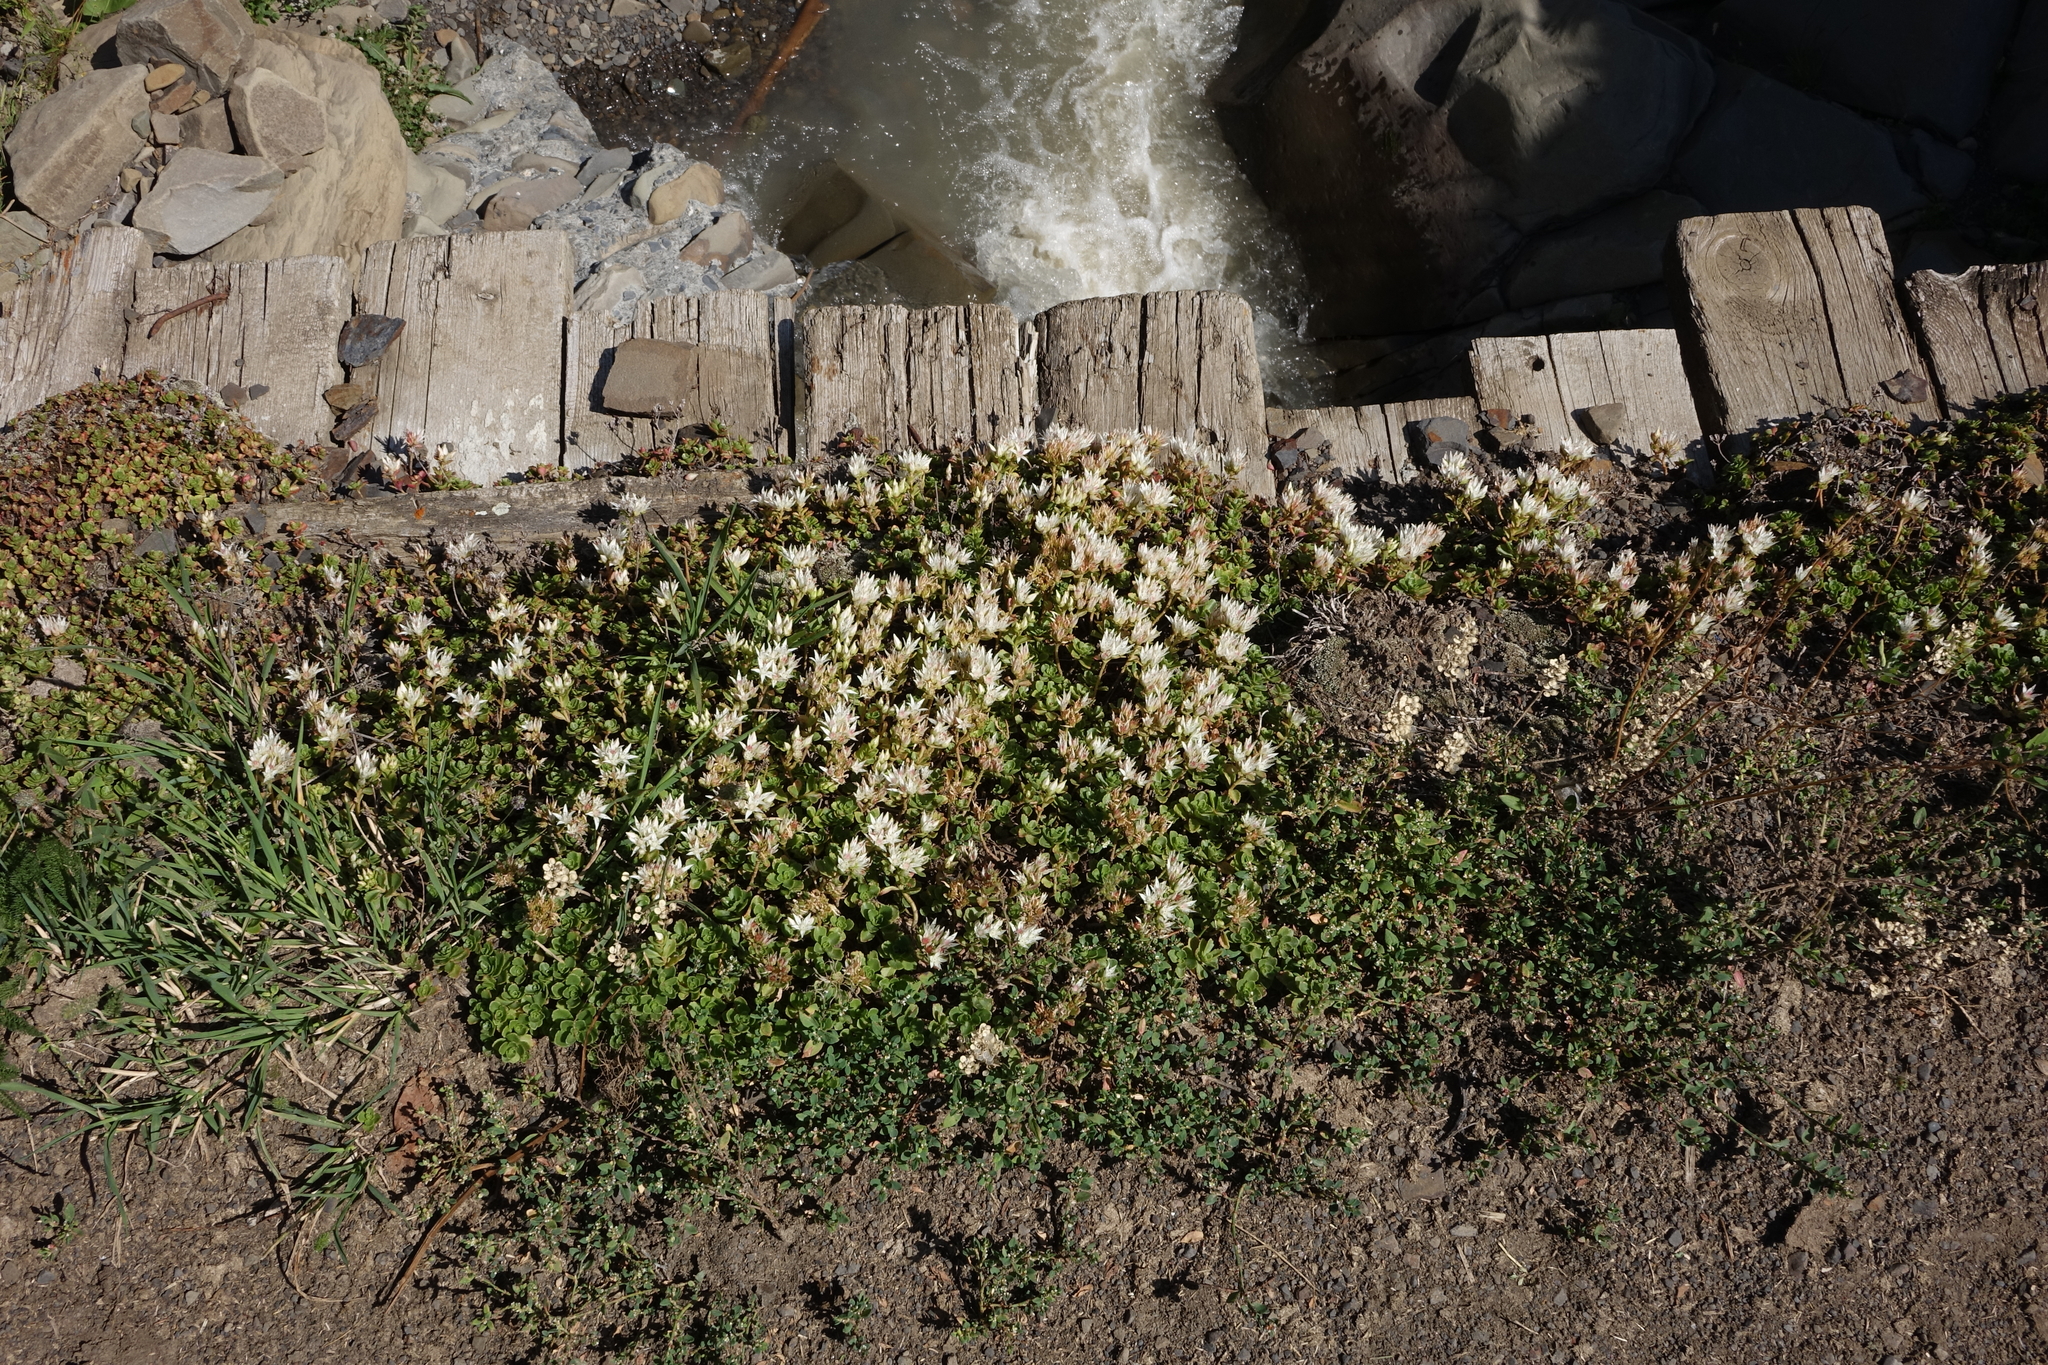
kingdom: Plantae
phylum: Tracheophyta
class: Magnoliopsida
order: Saxifragales
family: Crassulaceae
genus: Phedimus
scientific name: Phedimus spurius
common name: Caucasian stonecrop
